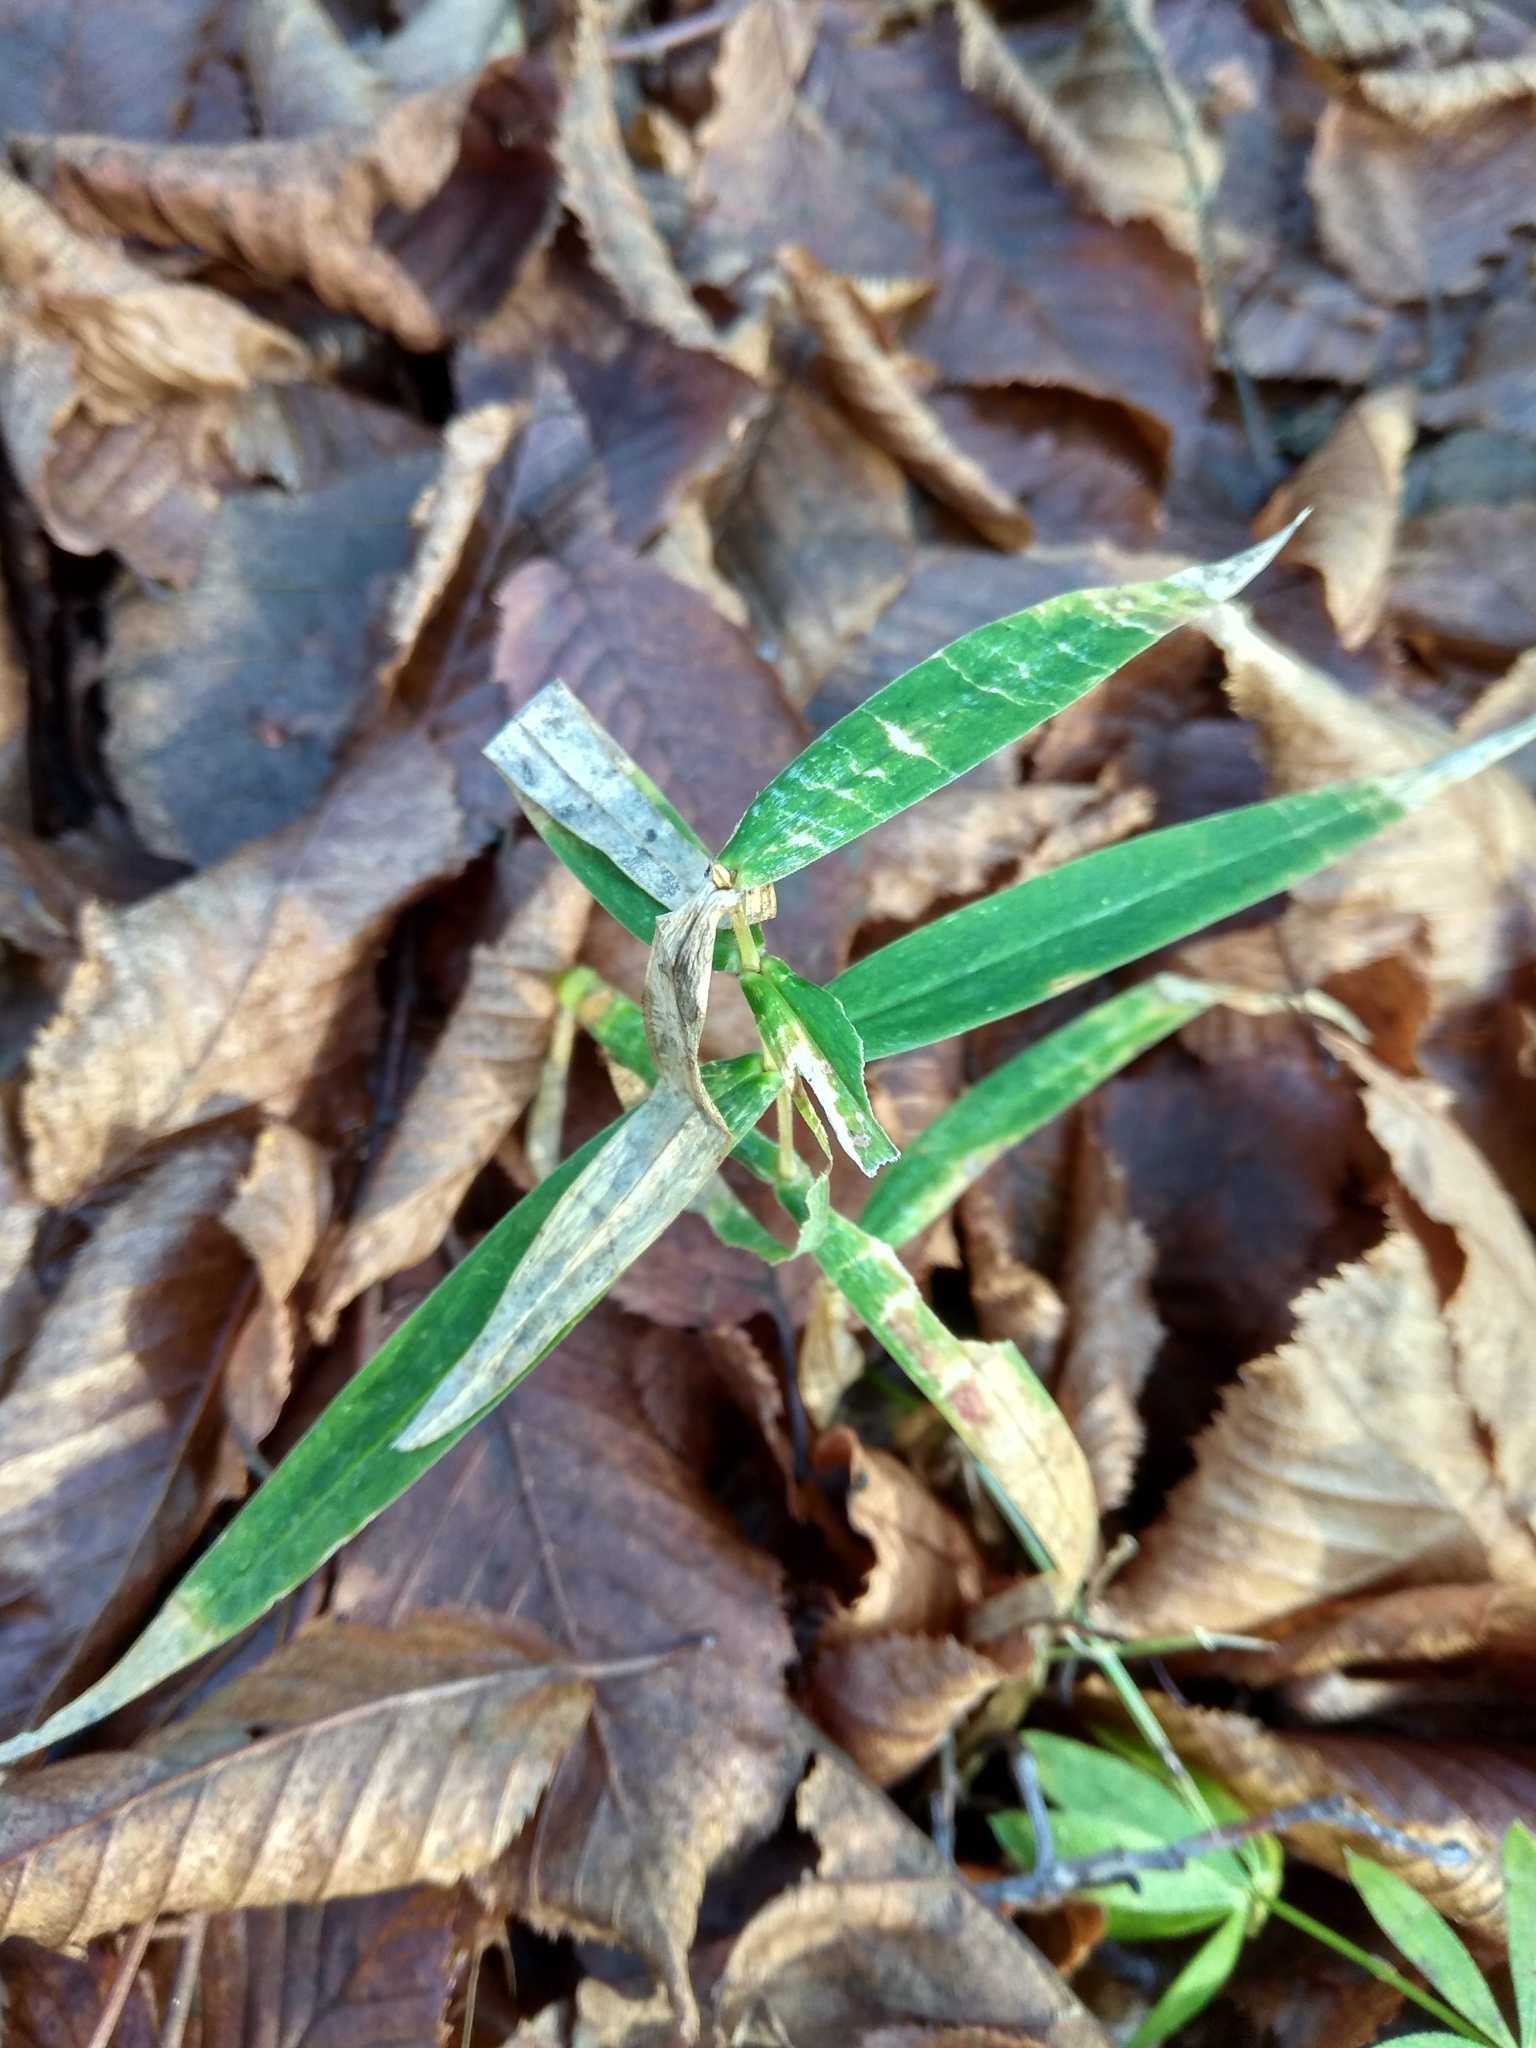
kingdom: Plantae
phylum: Tracheophyta
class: Magnoliopsida
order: Caryophyllales
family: Caryophyllaceae
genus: Rabelera
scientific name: Rabelera holostea
